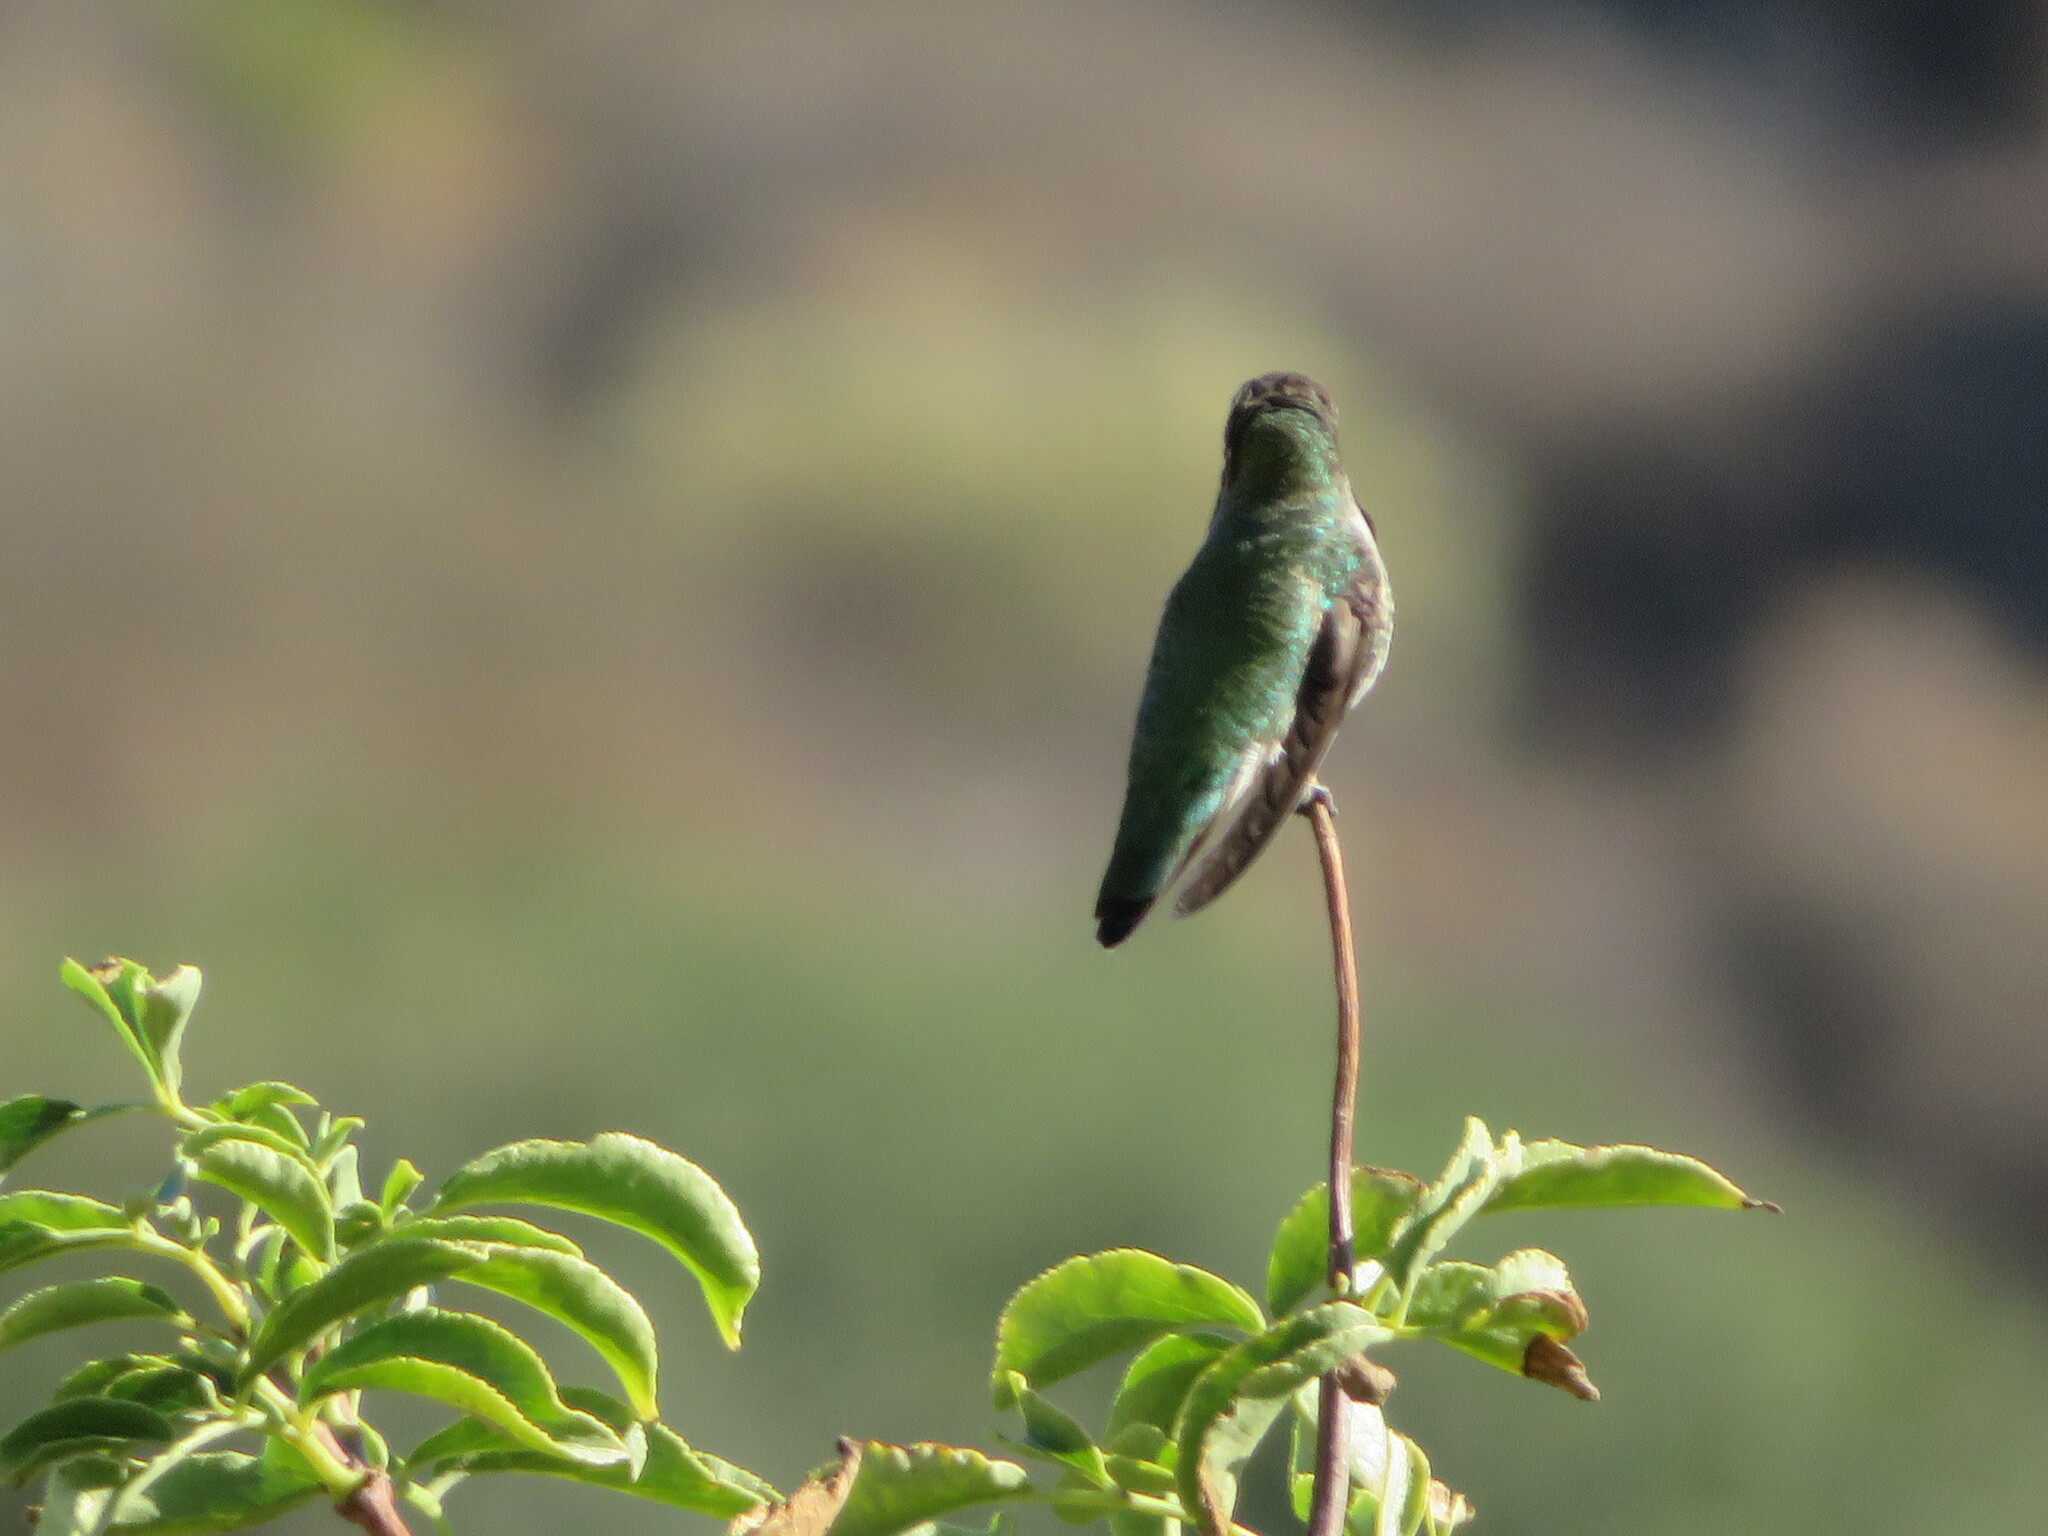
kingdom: Animalia
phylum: Chordata
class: Aves
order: Apodiformes
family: Trochilidae
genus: Calypte
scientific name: Calypte anna
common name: Anna's hummingbird
